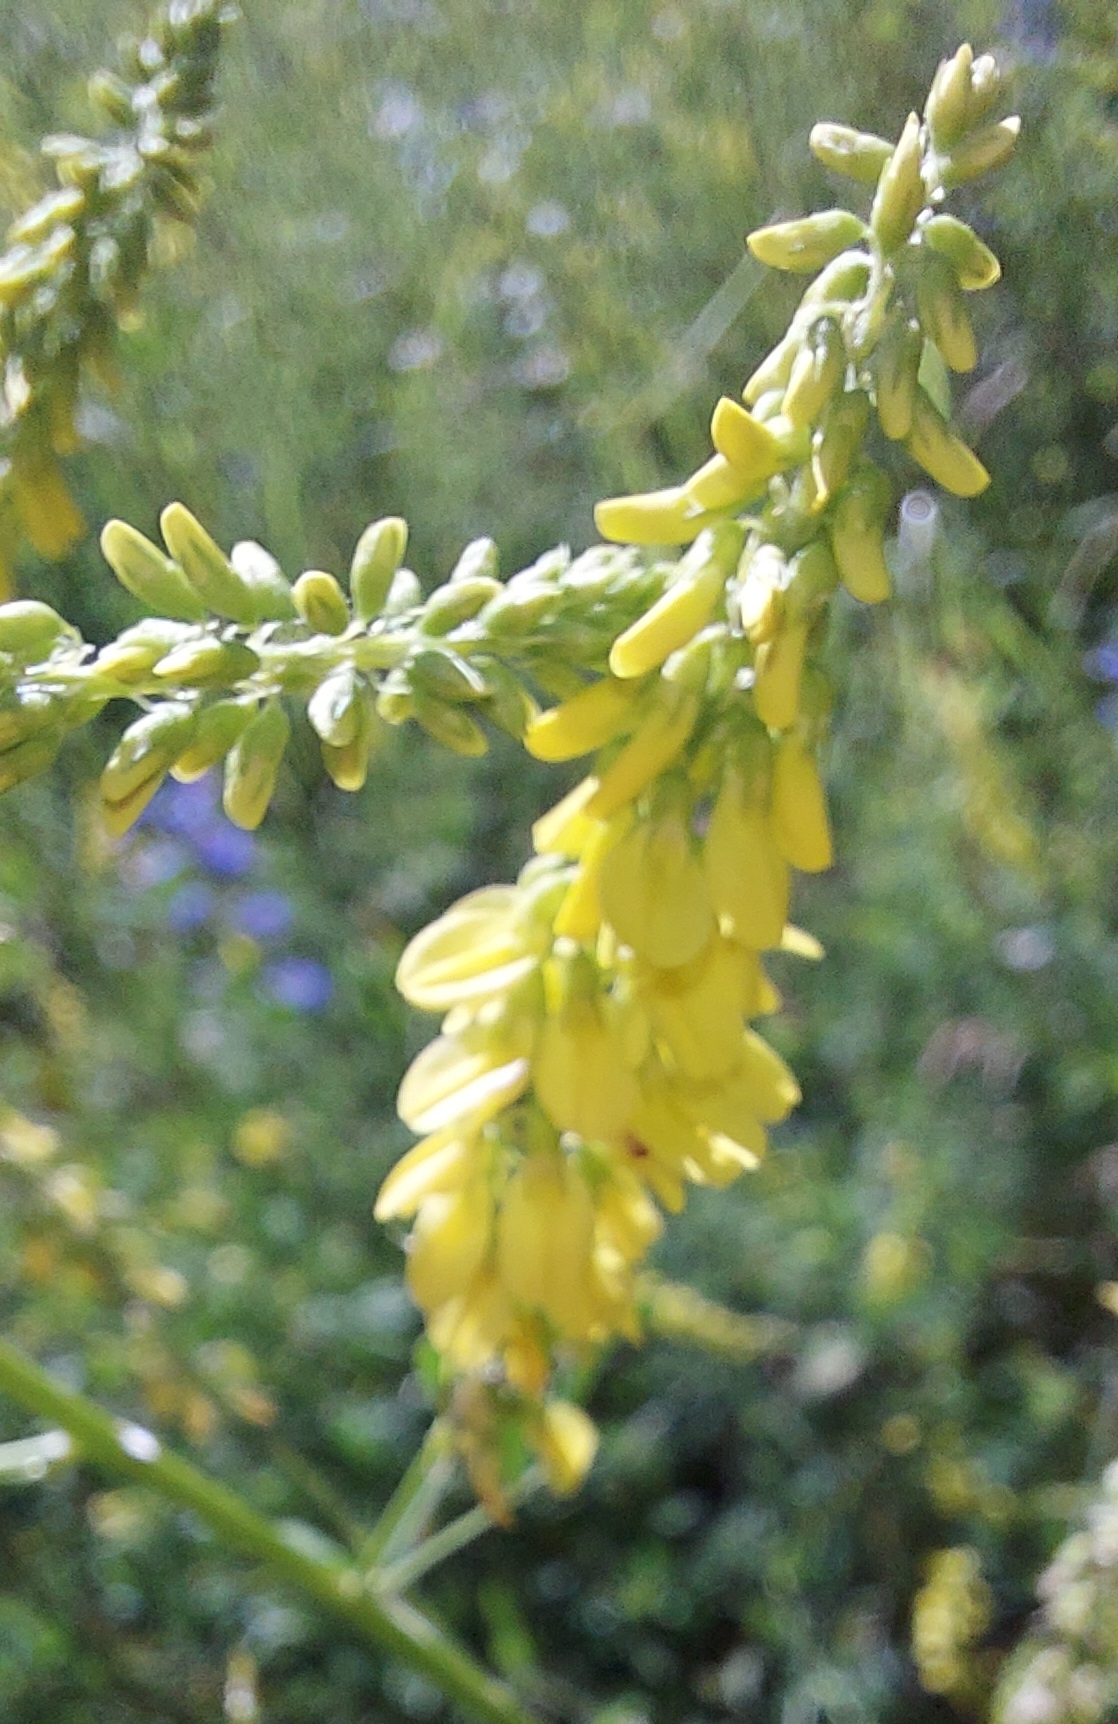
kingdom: Plantae
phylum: Tracheophyta
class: Magnoliopsida
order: Fabales
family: Fabaceae
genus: Melilotus
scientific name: Melilotus officinalis
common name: Sweetclover
